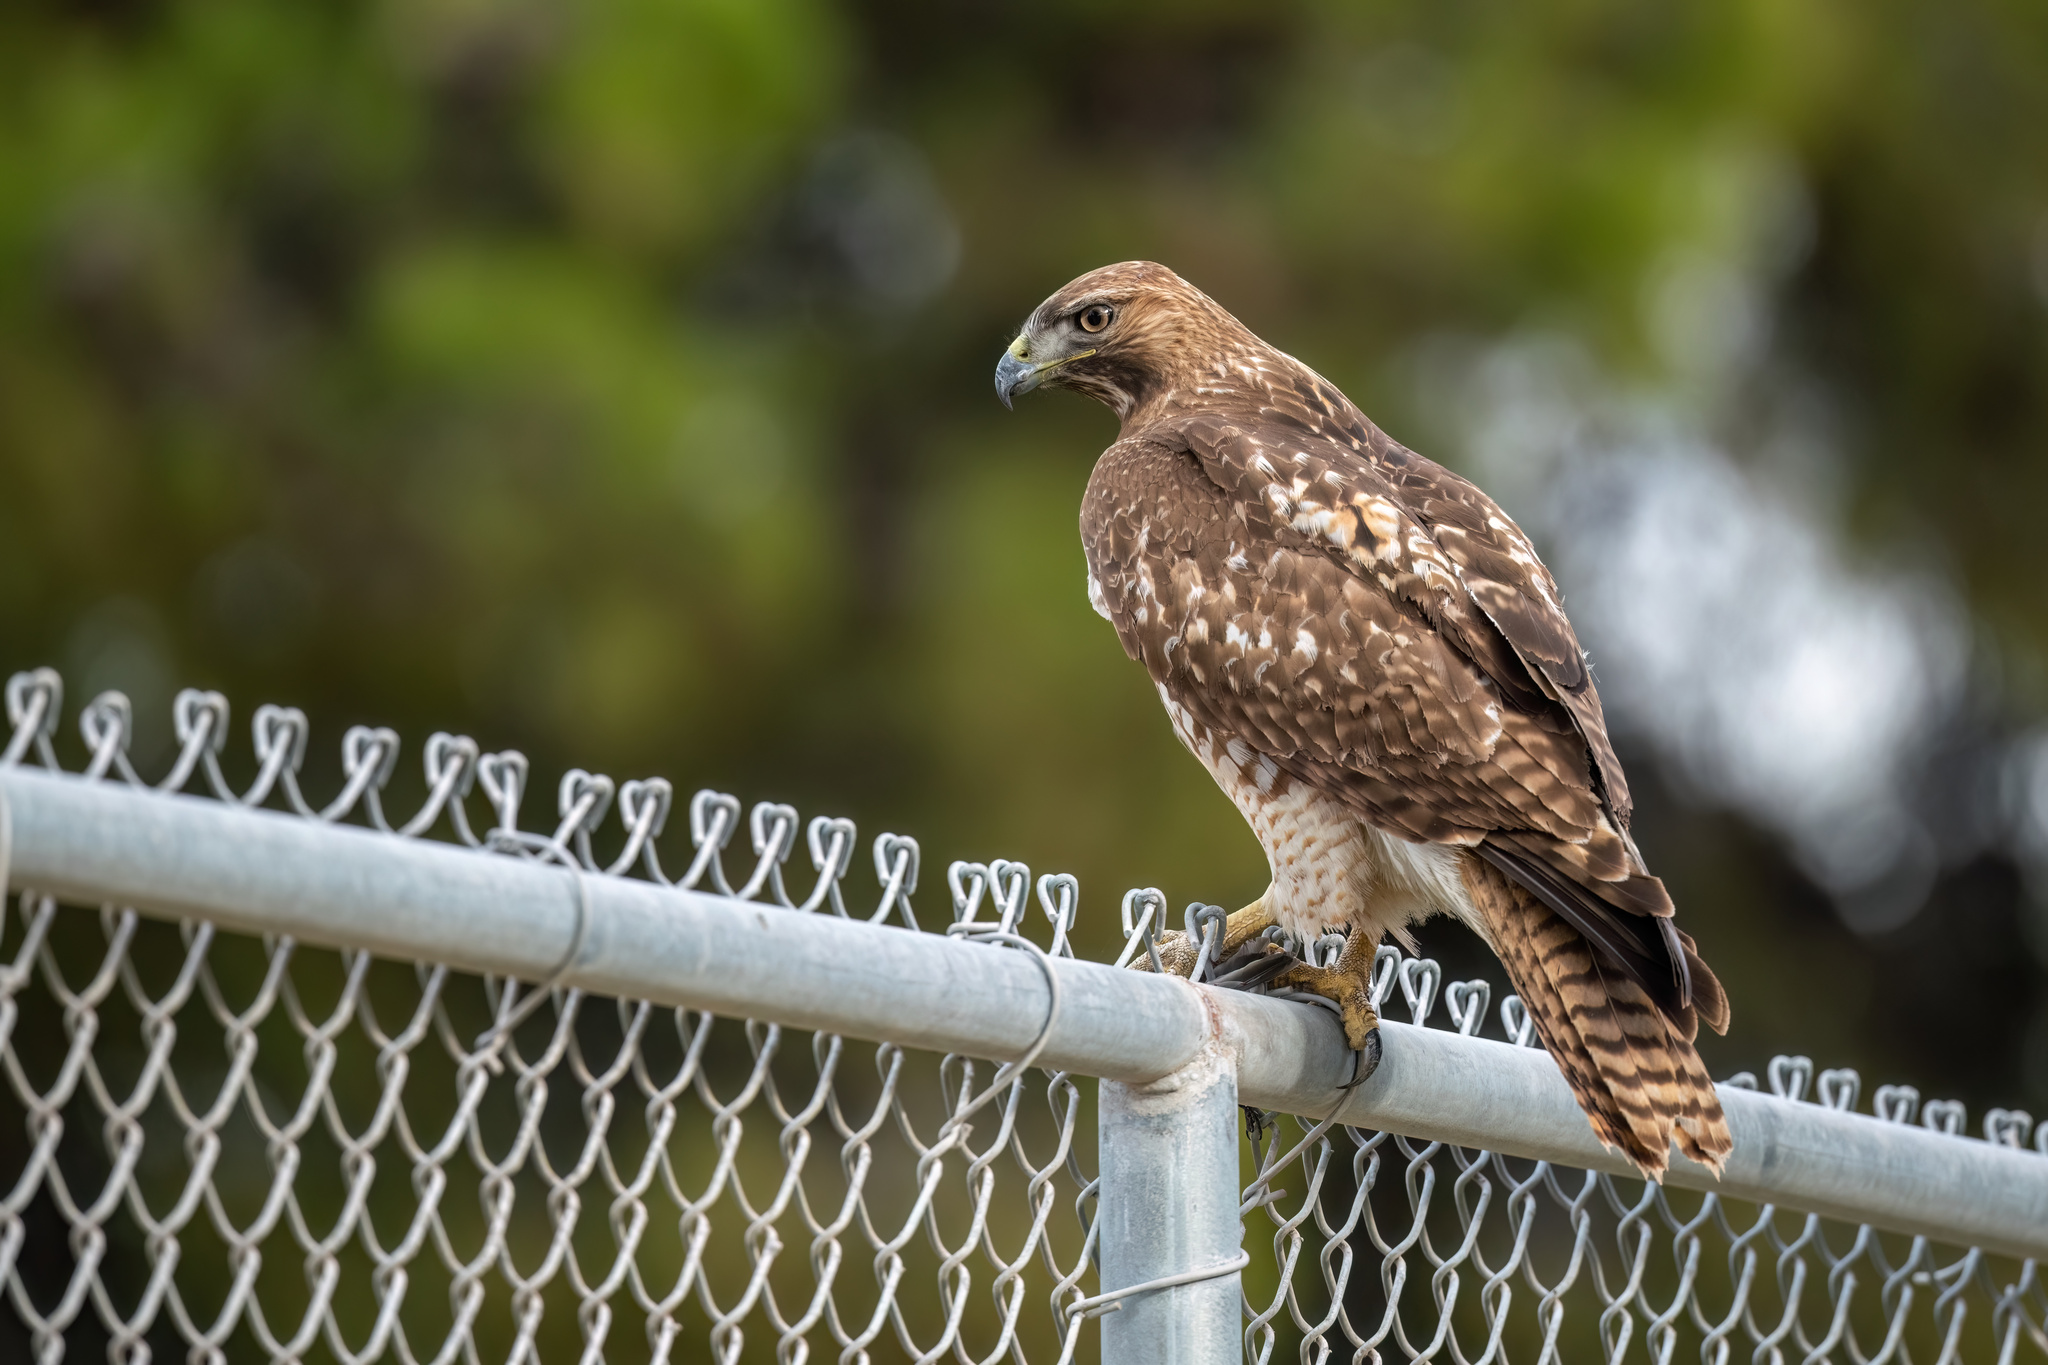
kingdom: Animalia
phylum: Chordata
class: Aves
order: Accipitriformes
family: Accipitridae
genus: Buteo
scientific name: Buteo jamaicensis
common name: Red-tailed hawk
